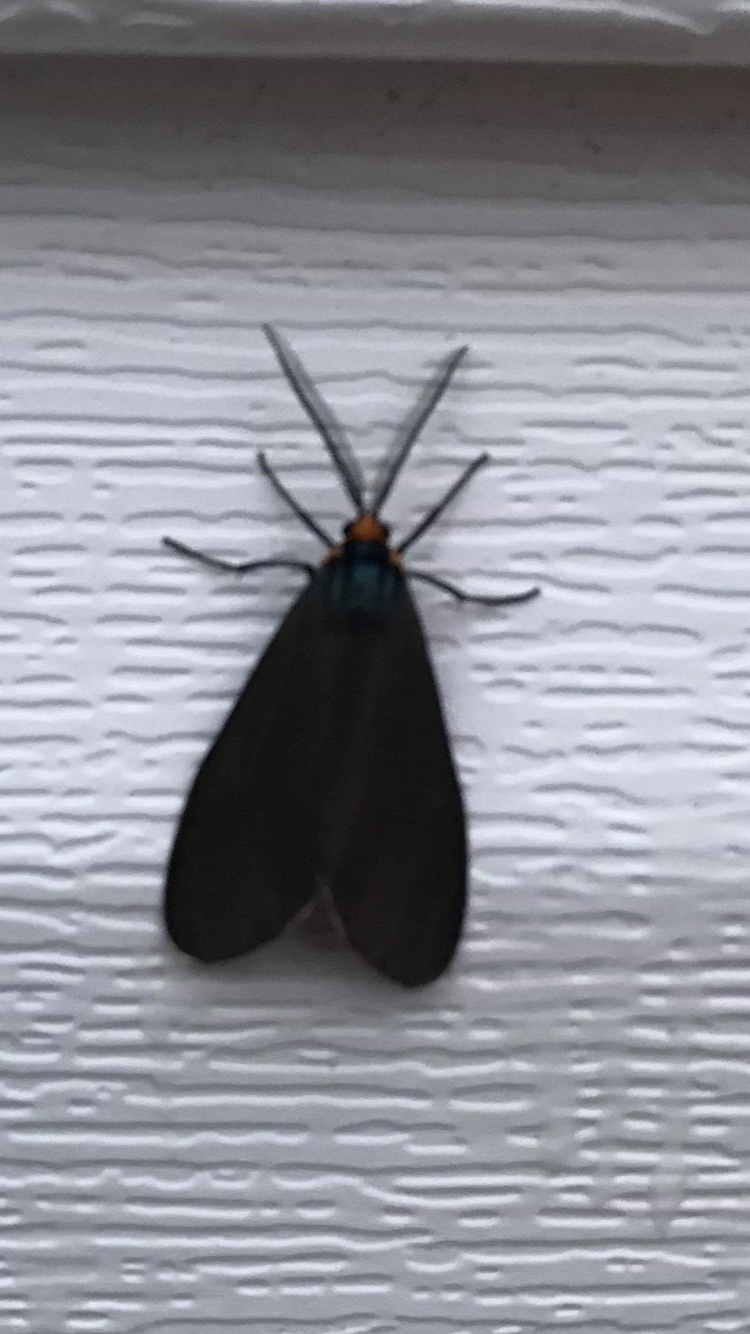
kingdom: Animalia
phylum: Arthropoda
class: Insecta
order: Lepidoptera
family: Erebidae
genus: Ctenucha
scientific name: Ctenucha virginica
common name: Virginia ctenucha moth
